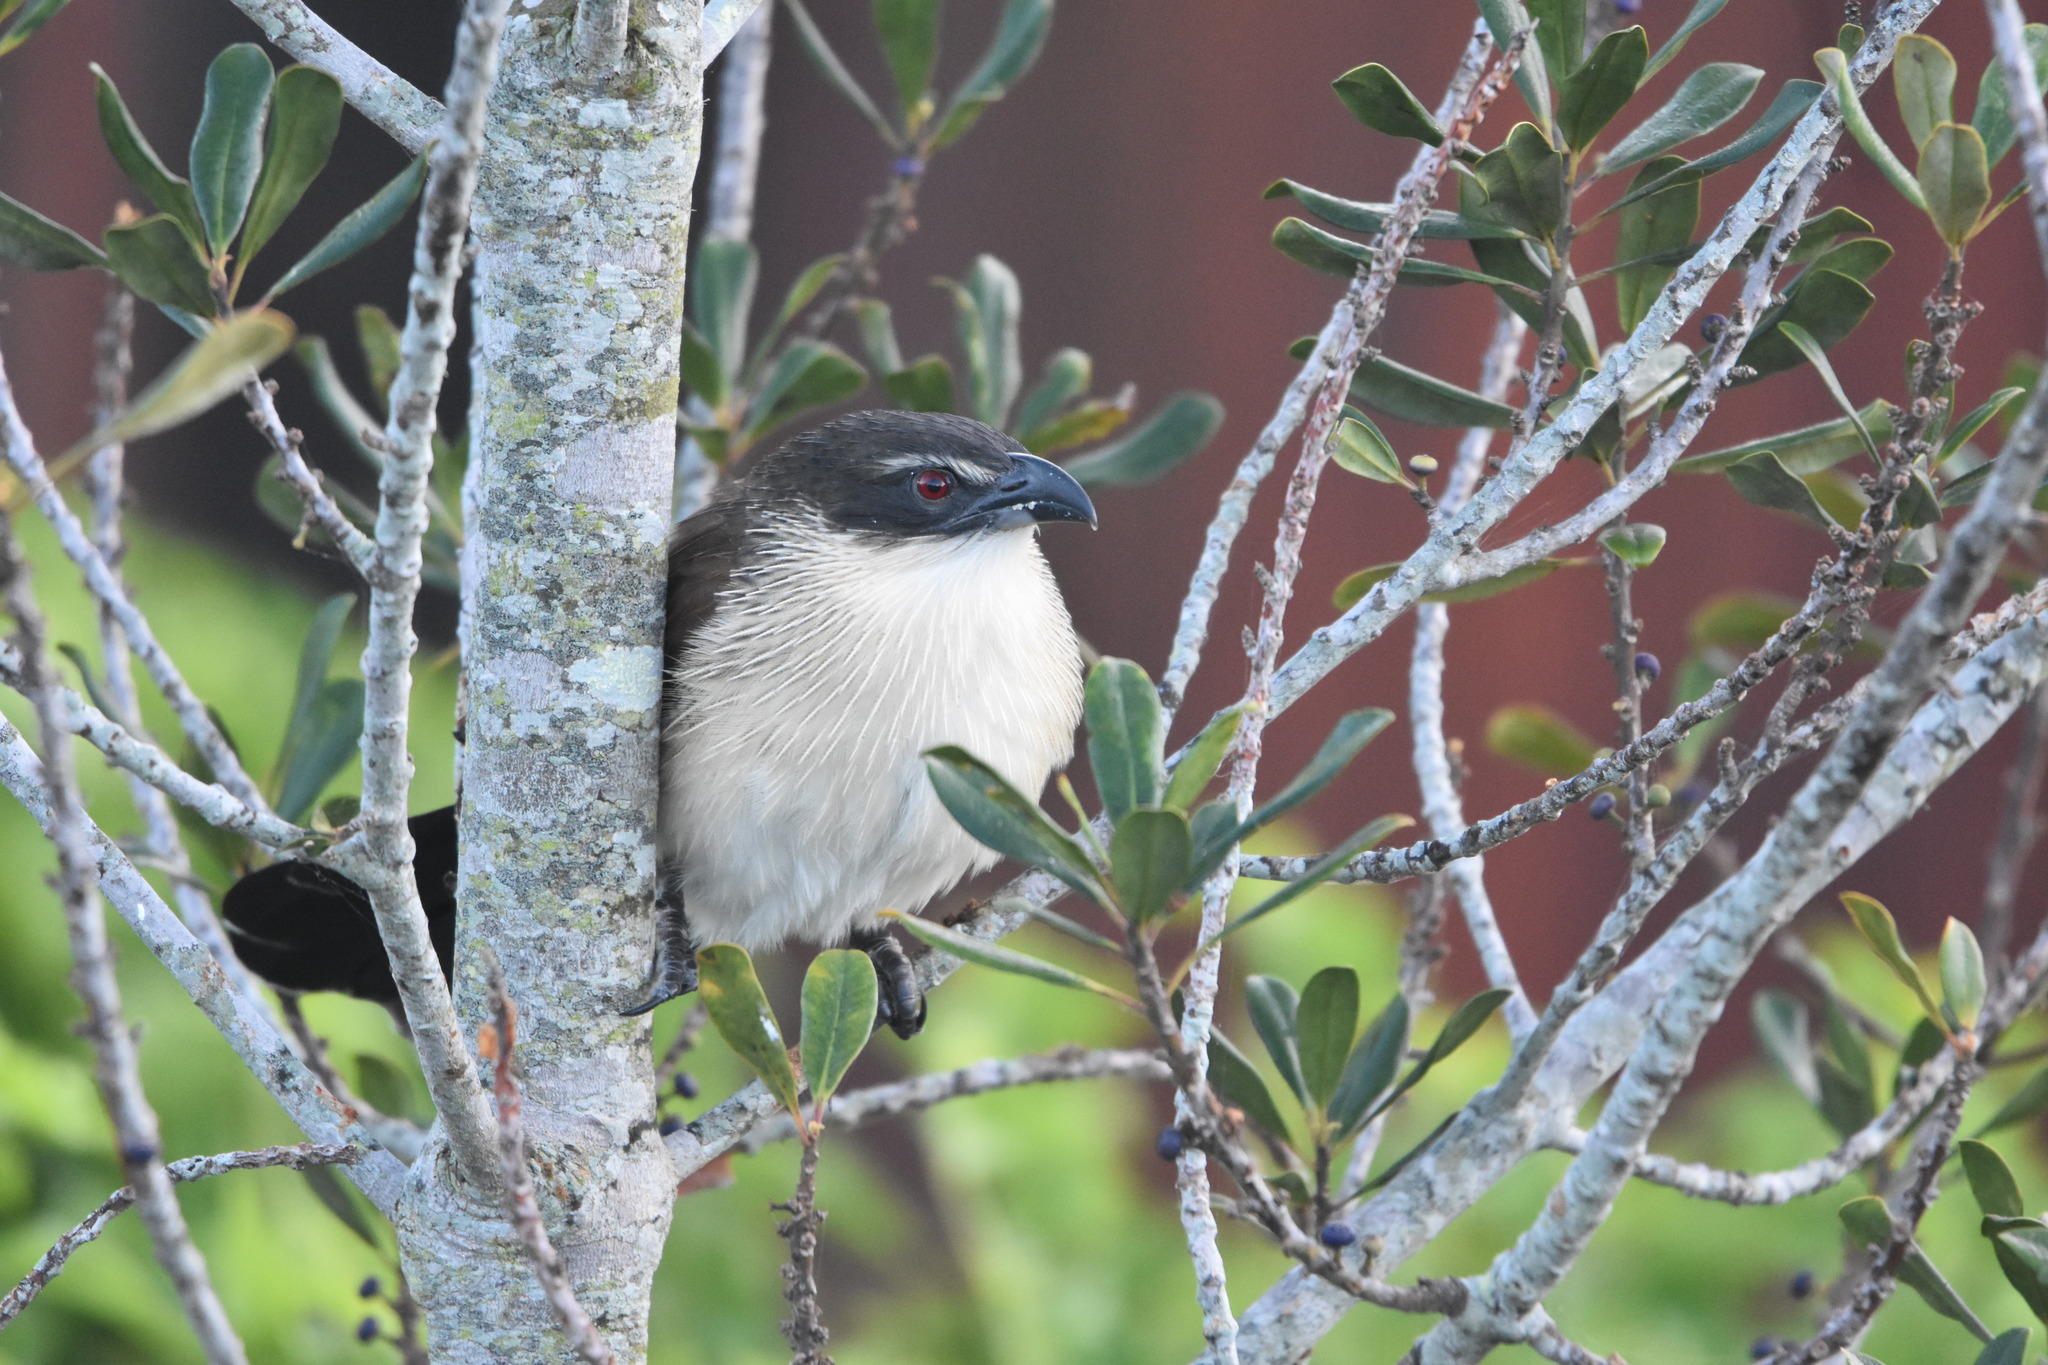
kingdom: Animalia
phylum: Chordata
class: Aves
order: Cuculiformes
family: Cuculidae
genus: Centropus
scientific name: Centropus superciliosus
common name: White-browed coucal
